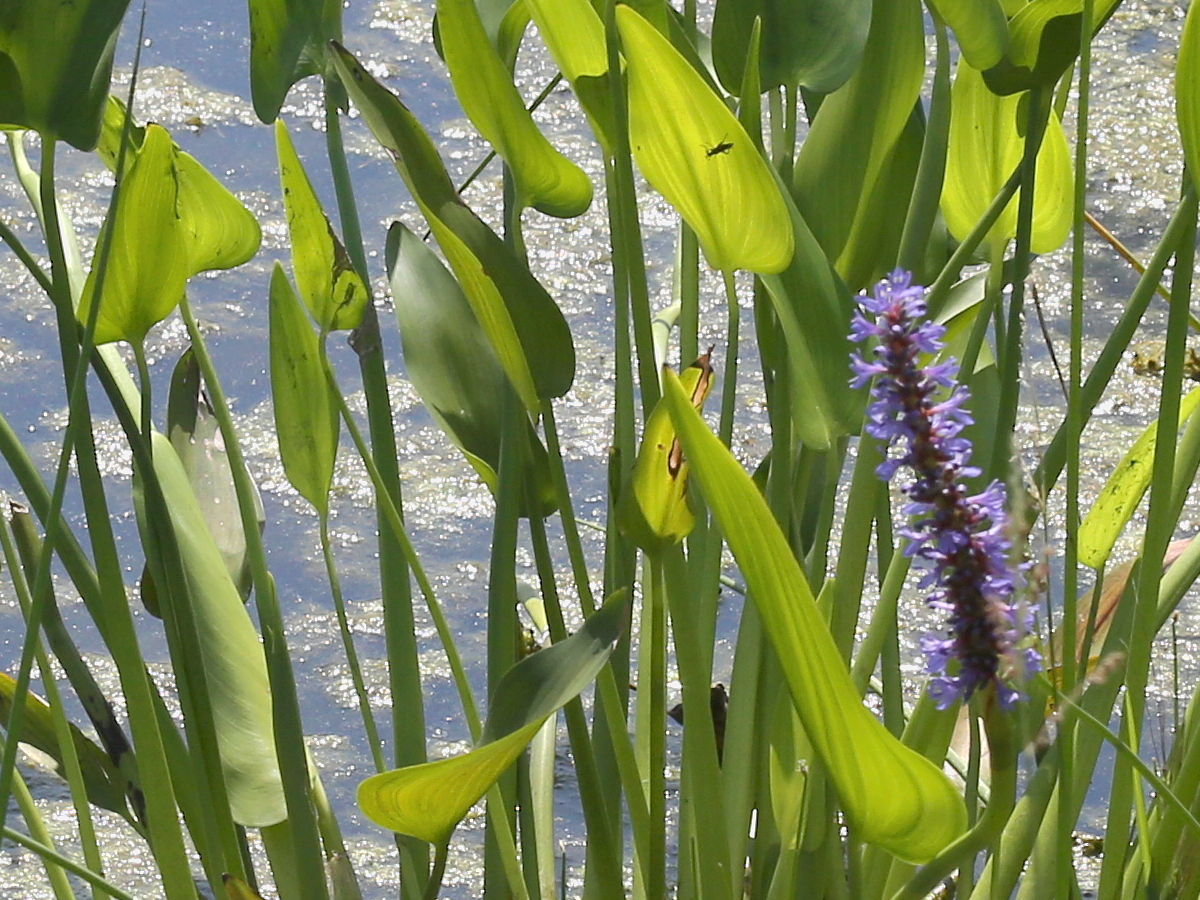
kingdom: Plantae
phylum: Tracheophyta
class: Liliopsida
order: Commelinales
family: Pontederiaceae
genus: Pontederia
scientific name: Pontederia cordata
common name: Pickerelweed
